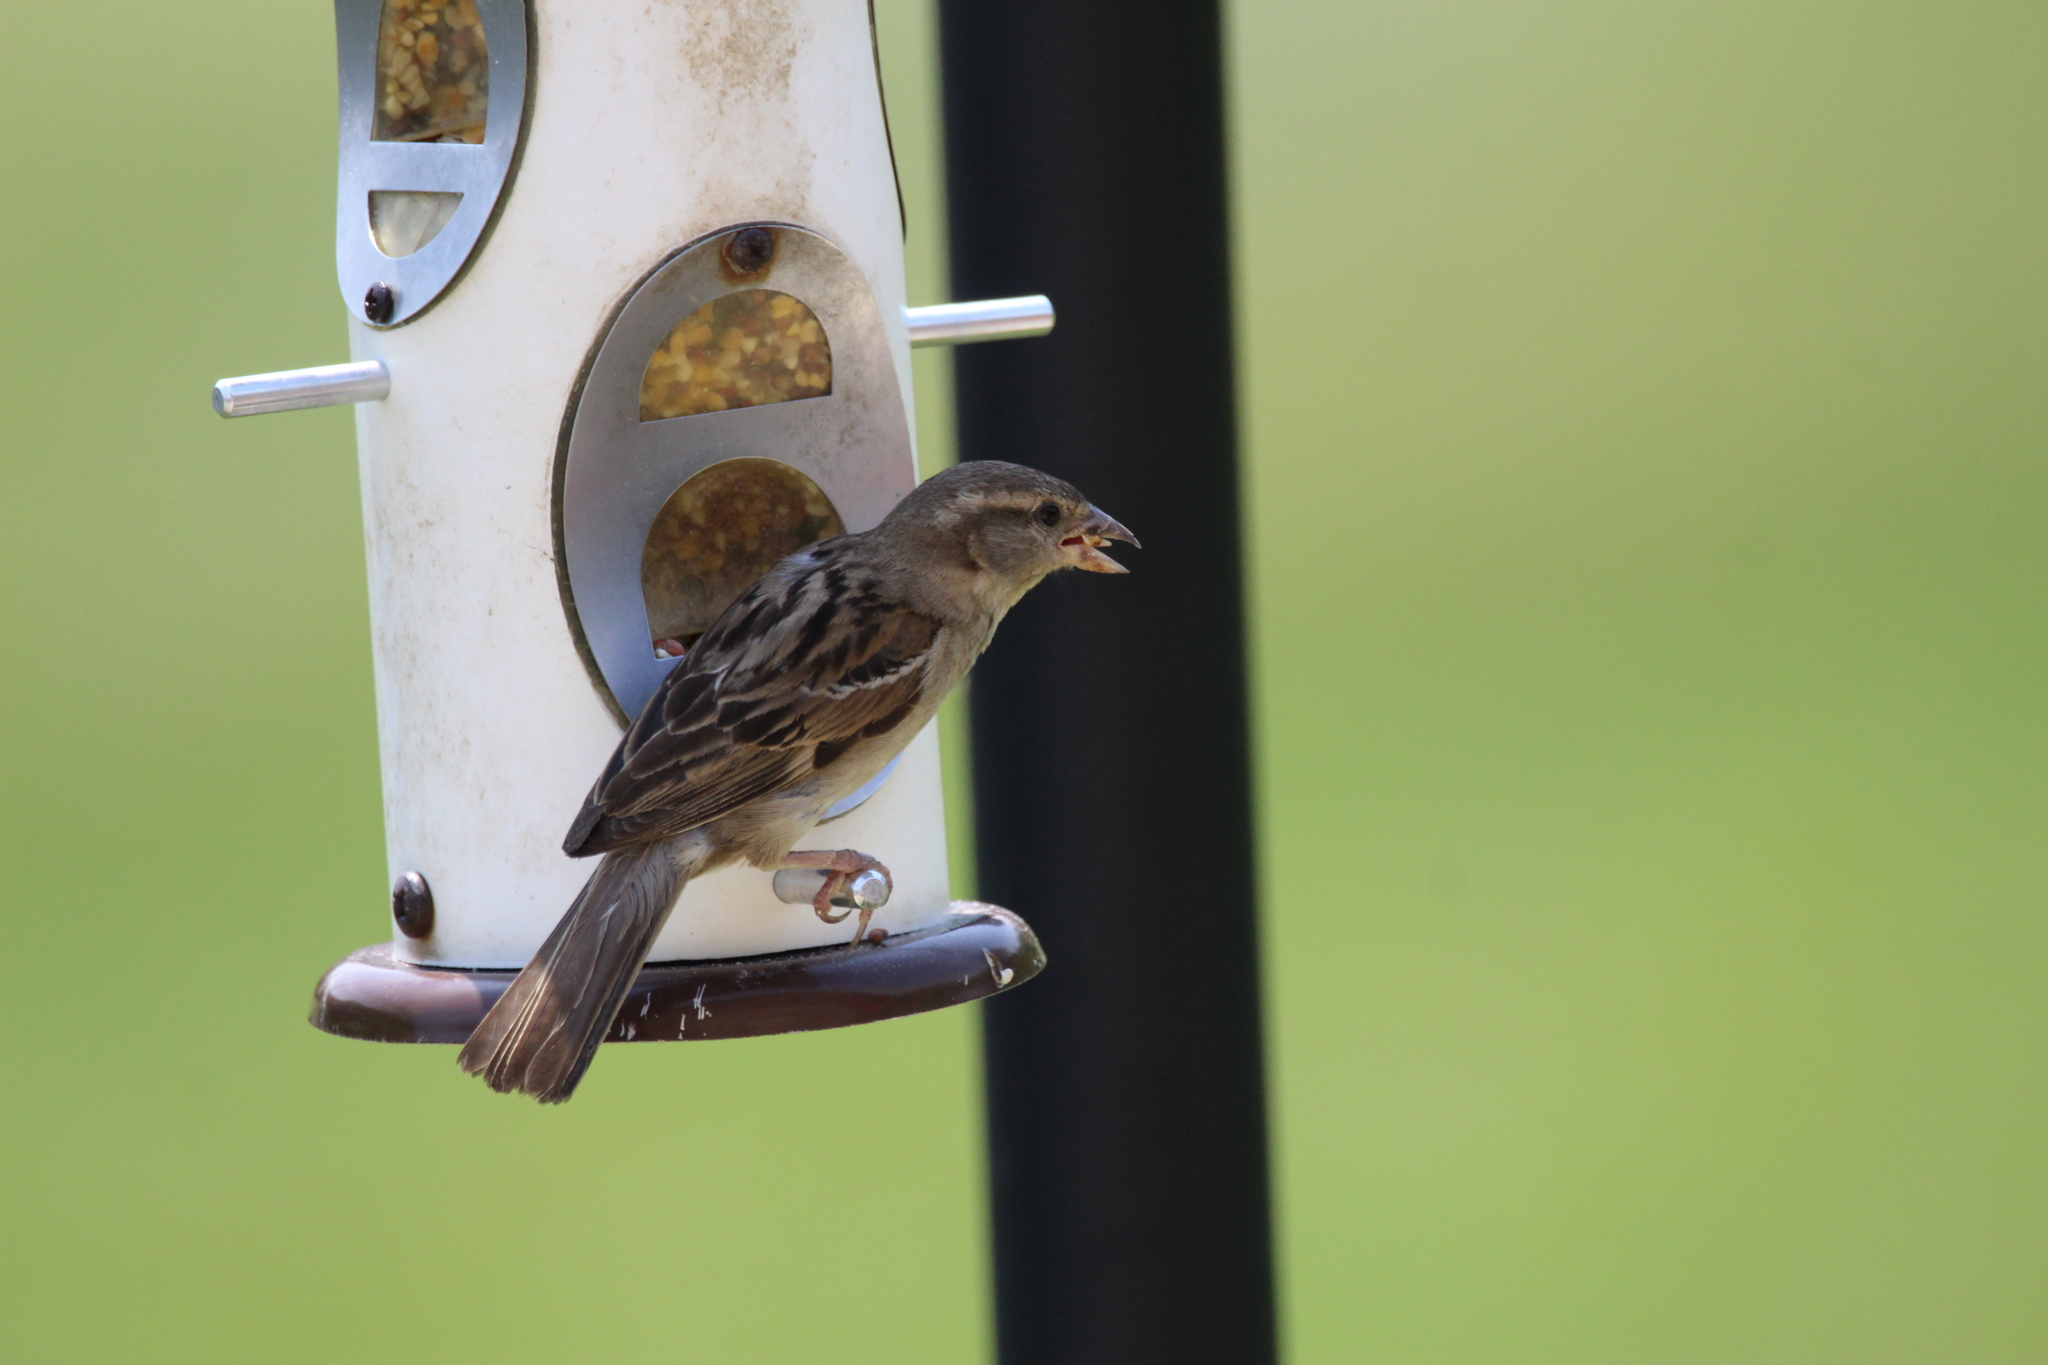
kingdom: Animalia
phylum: Chordata
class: Aves
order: Passeriformes
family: Passeridae
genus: Passer
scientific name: Passer domesticus
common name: House sparrow
